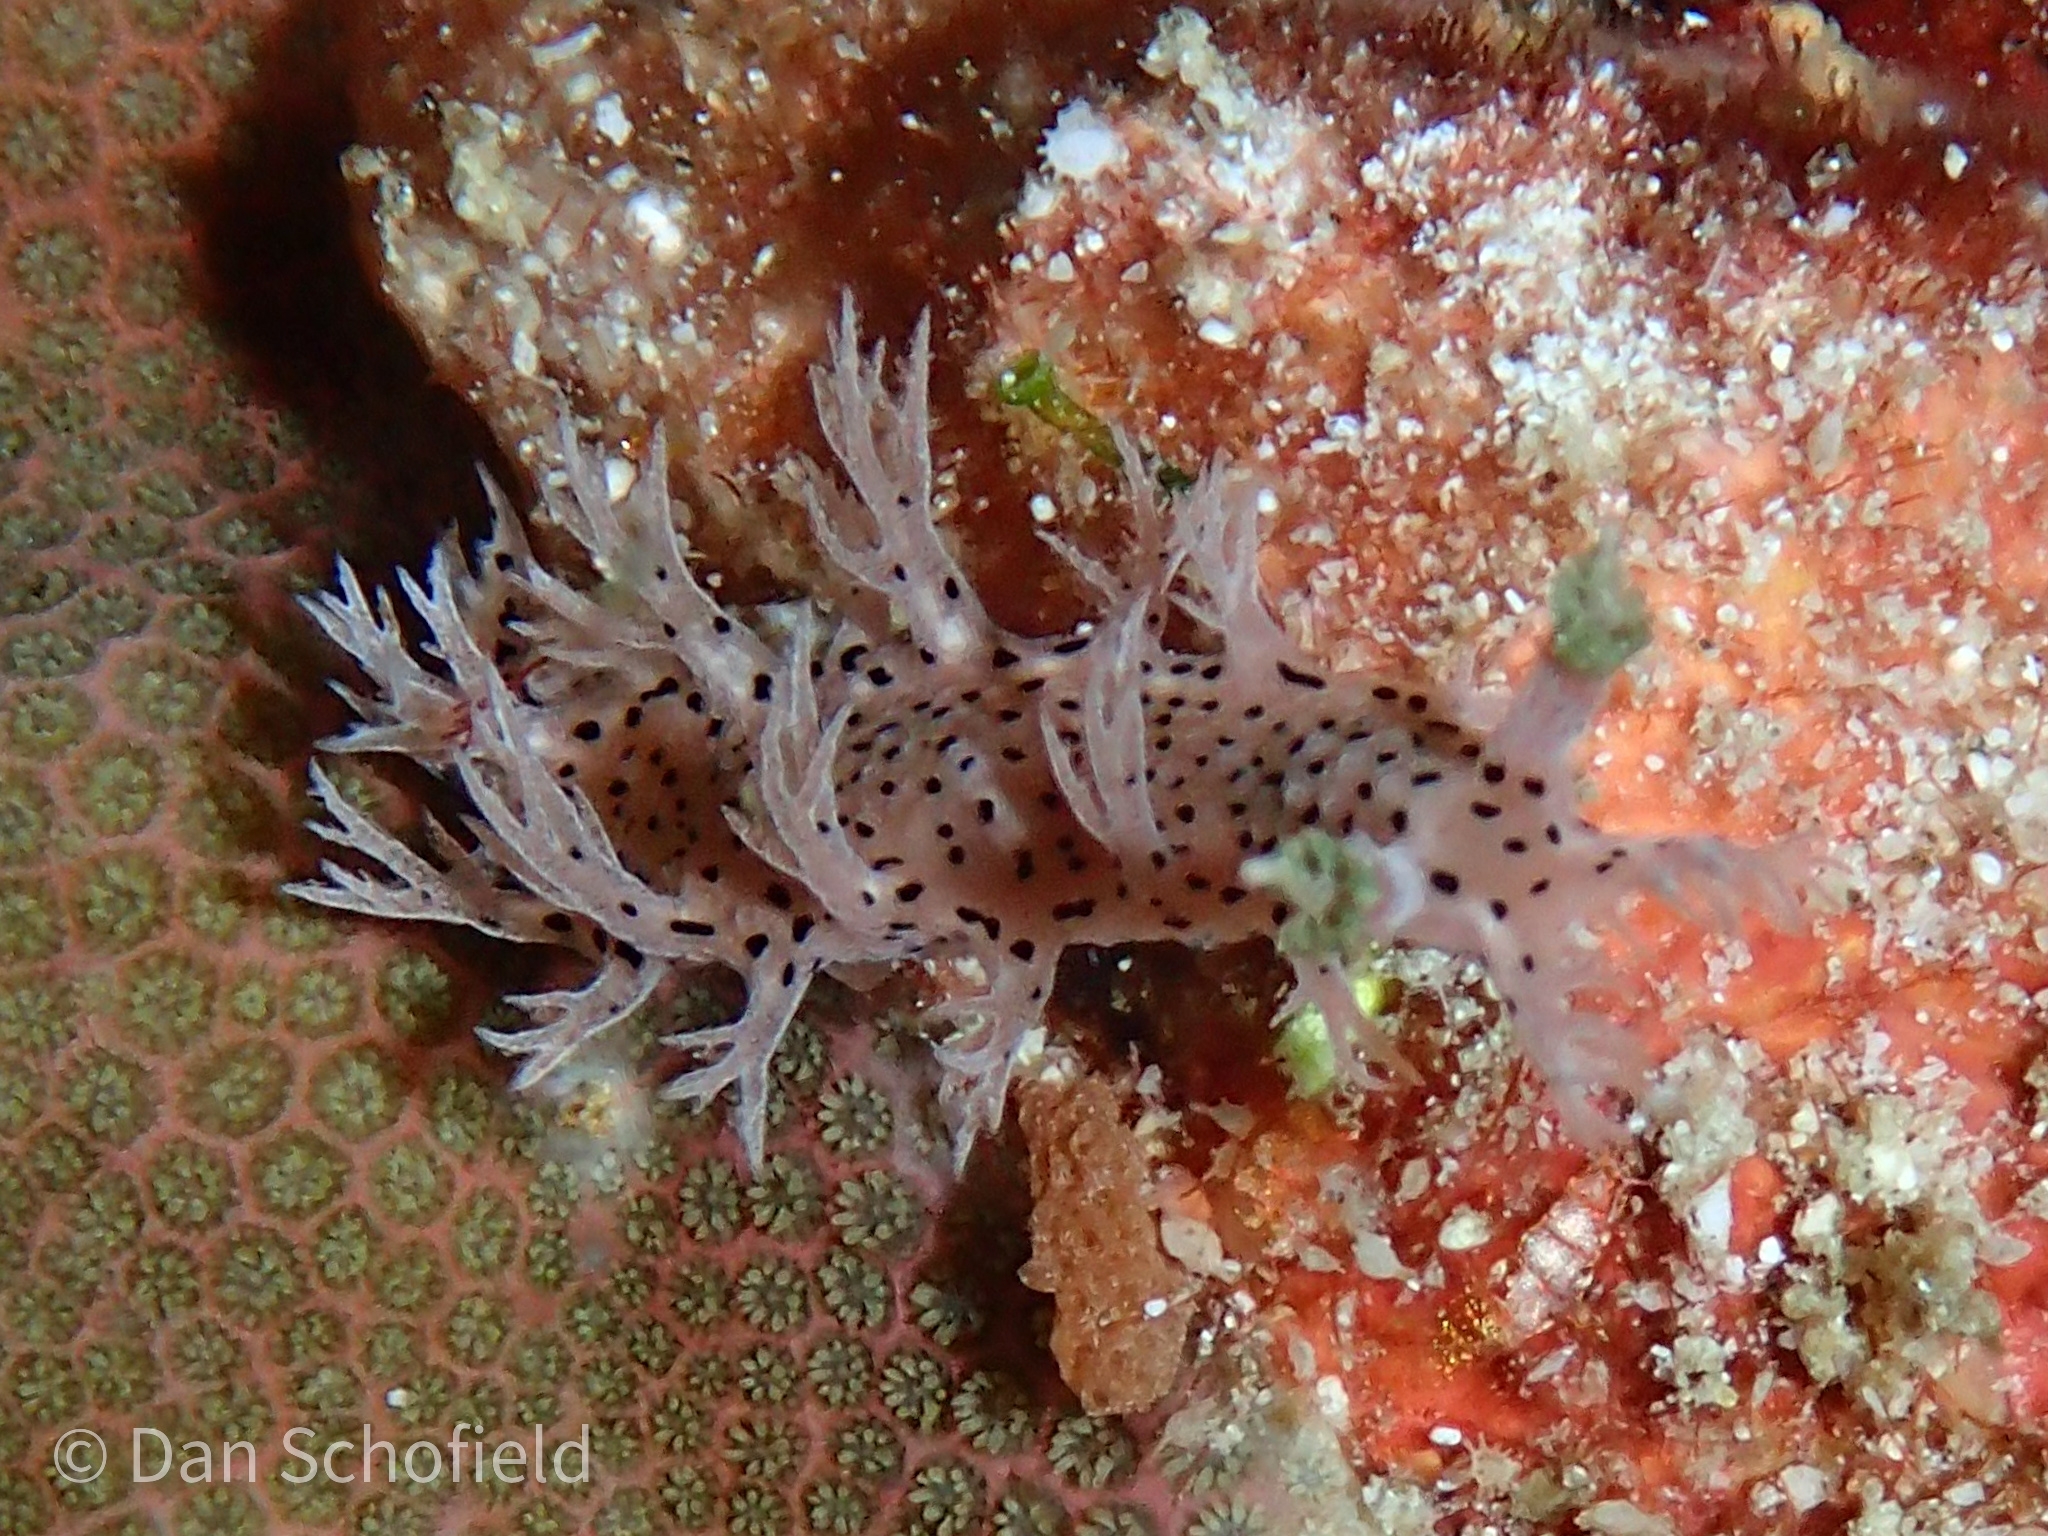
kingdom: Animalia
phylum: Mollusca
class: Gastropoda
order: Nudibranchia
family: Tritoniidae
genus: Tritonia
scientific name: Tritonia
